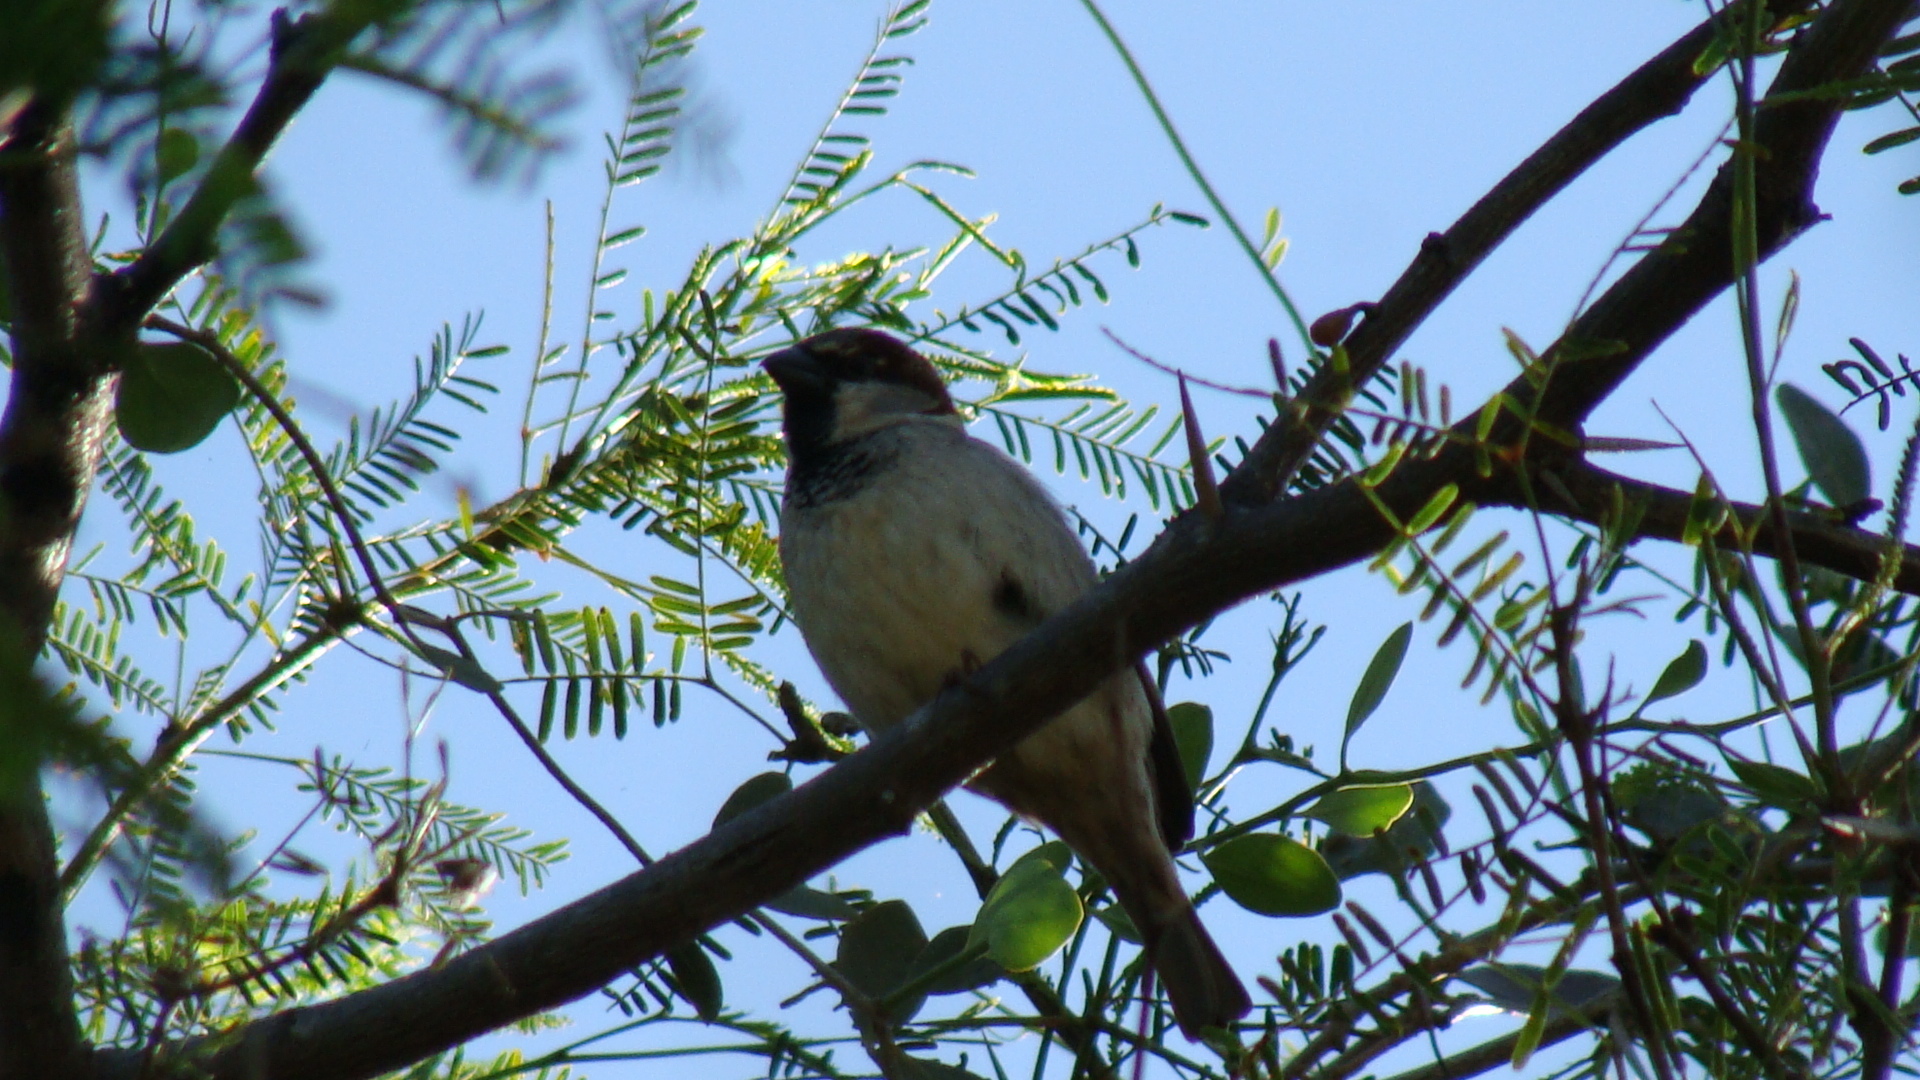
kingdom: Animalia
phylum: Chordata
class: Aves
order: Passeriformes
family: Passeridae
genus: Passer
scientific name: Passer domesticus
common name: House sparrow
